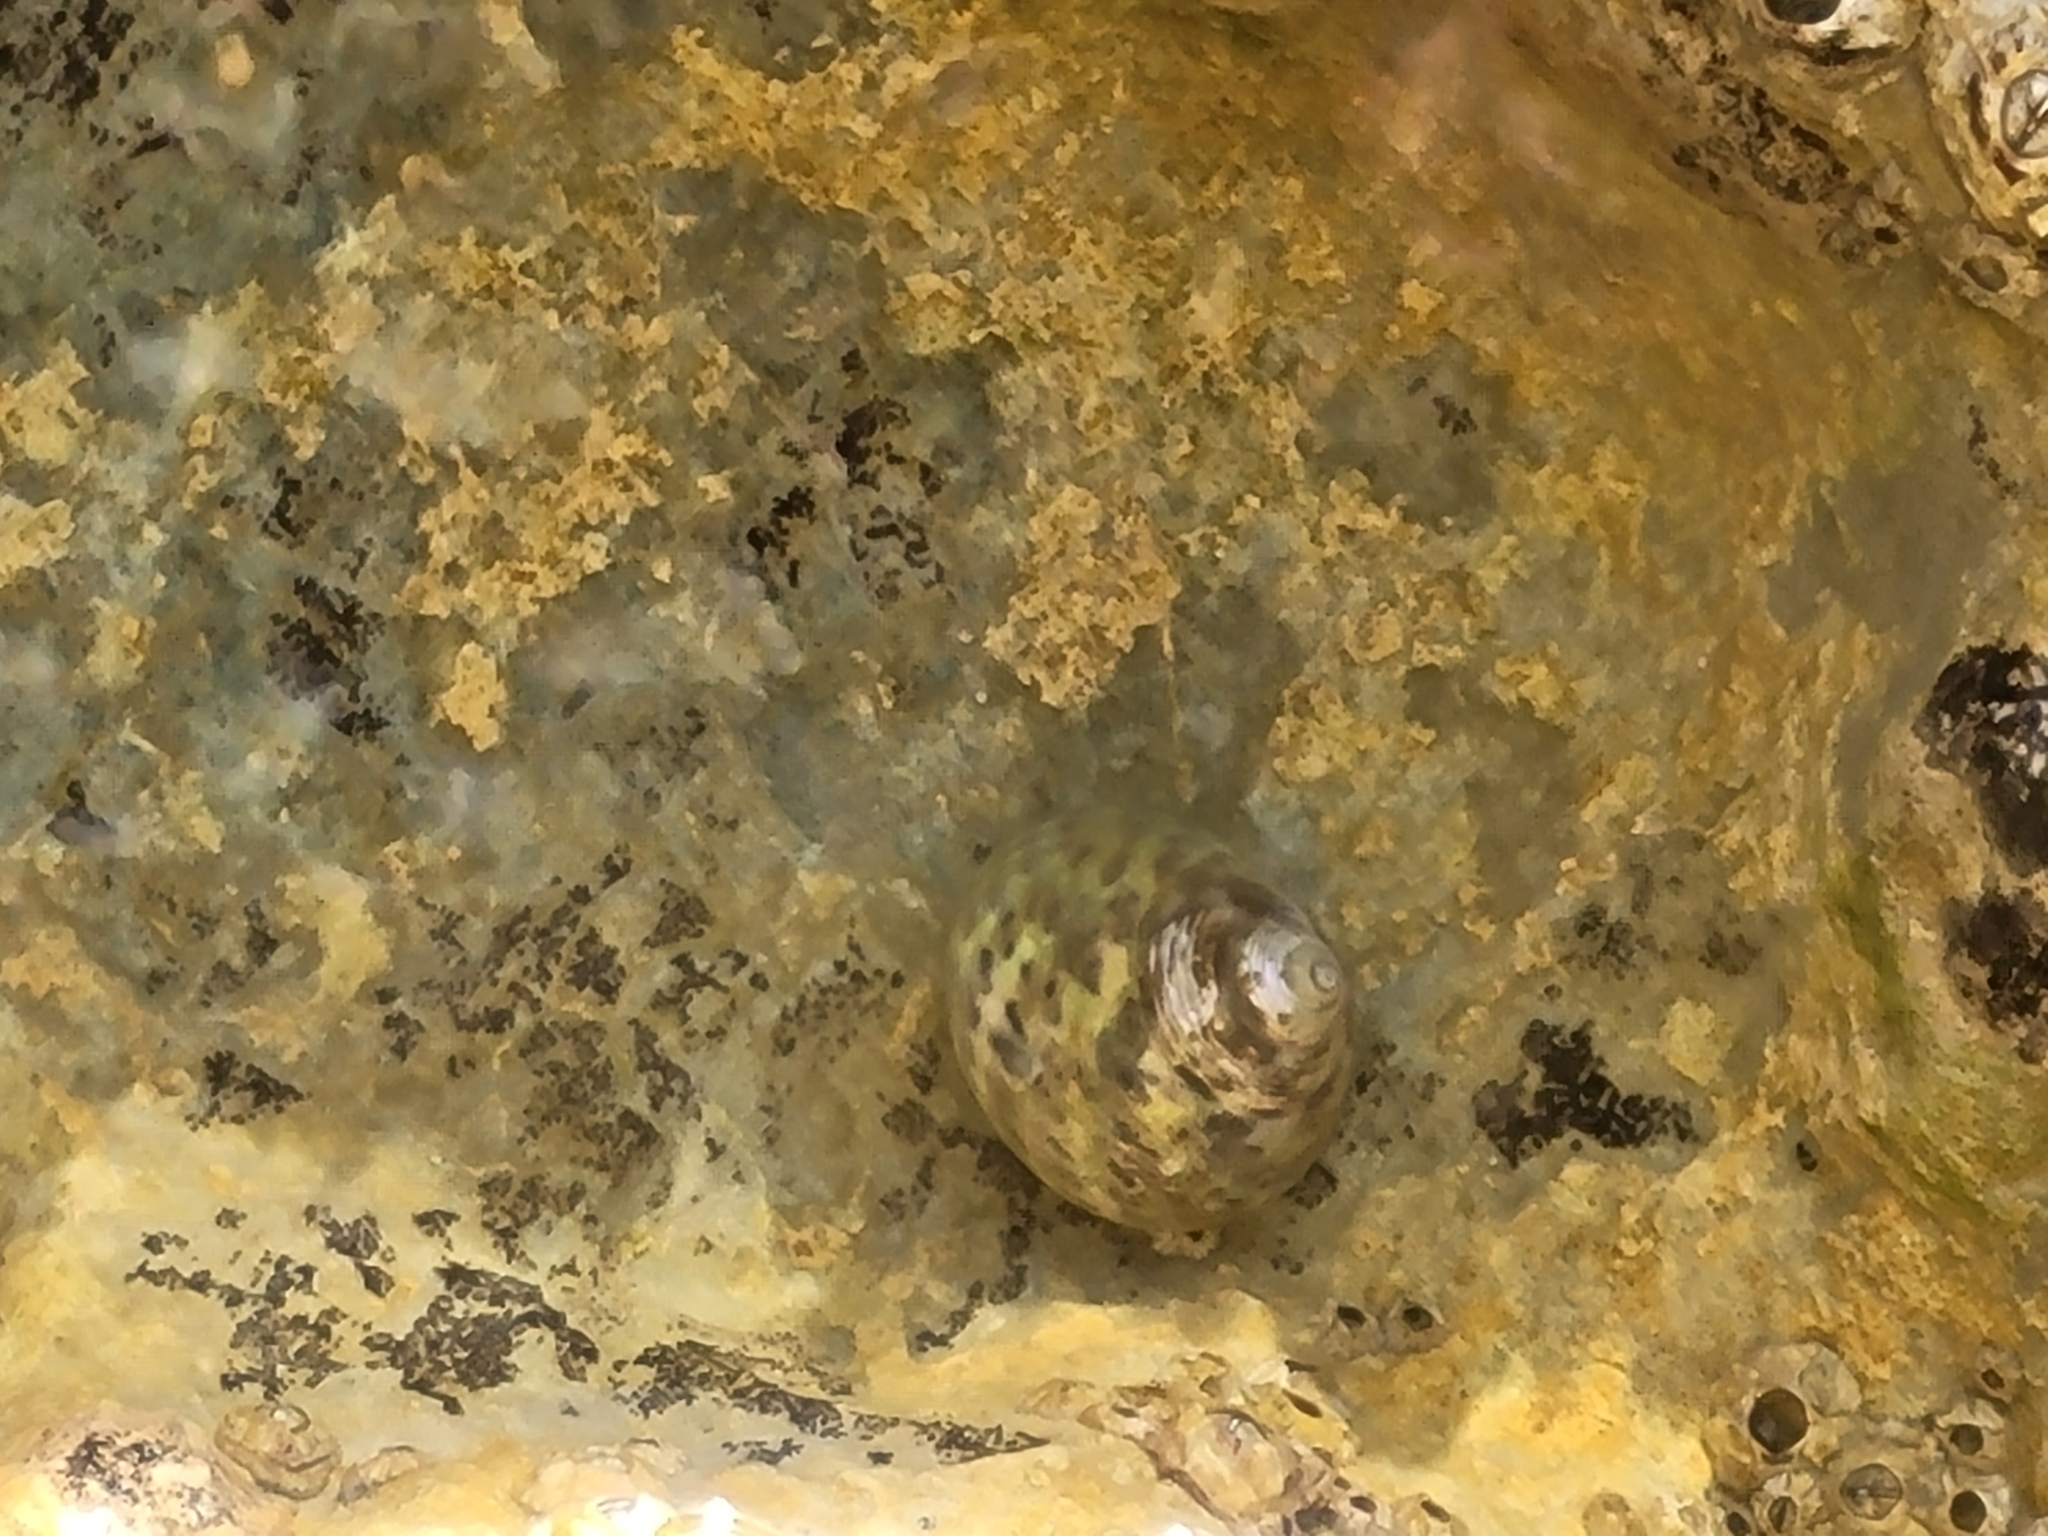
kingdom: Animalia
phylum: Mollusca
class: Gastropoda
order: Trochida
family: Trochidae
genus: Phorcus
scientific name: Phorcus turbinatus
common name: Turbinate monodont
